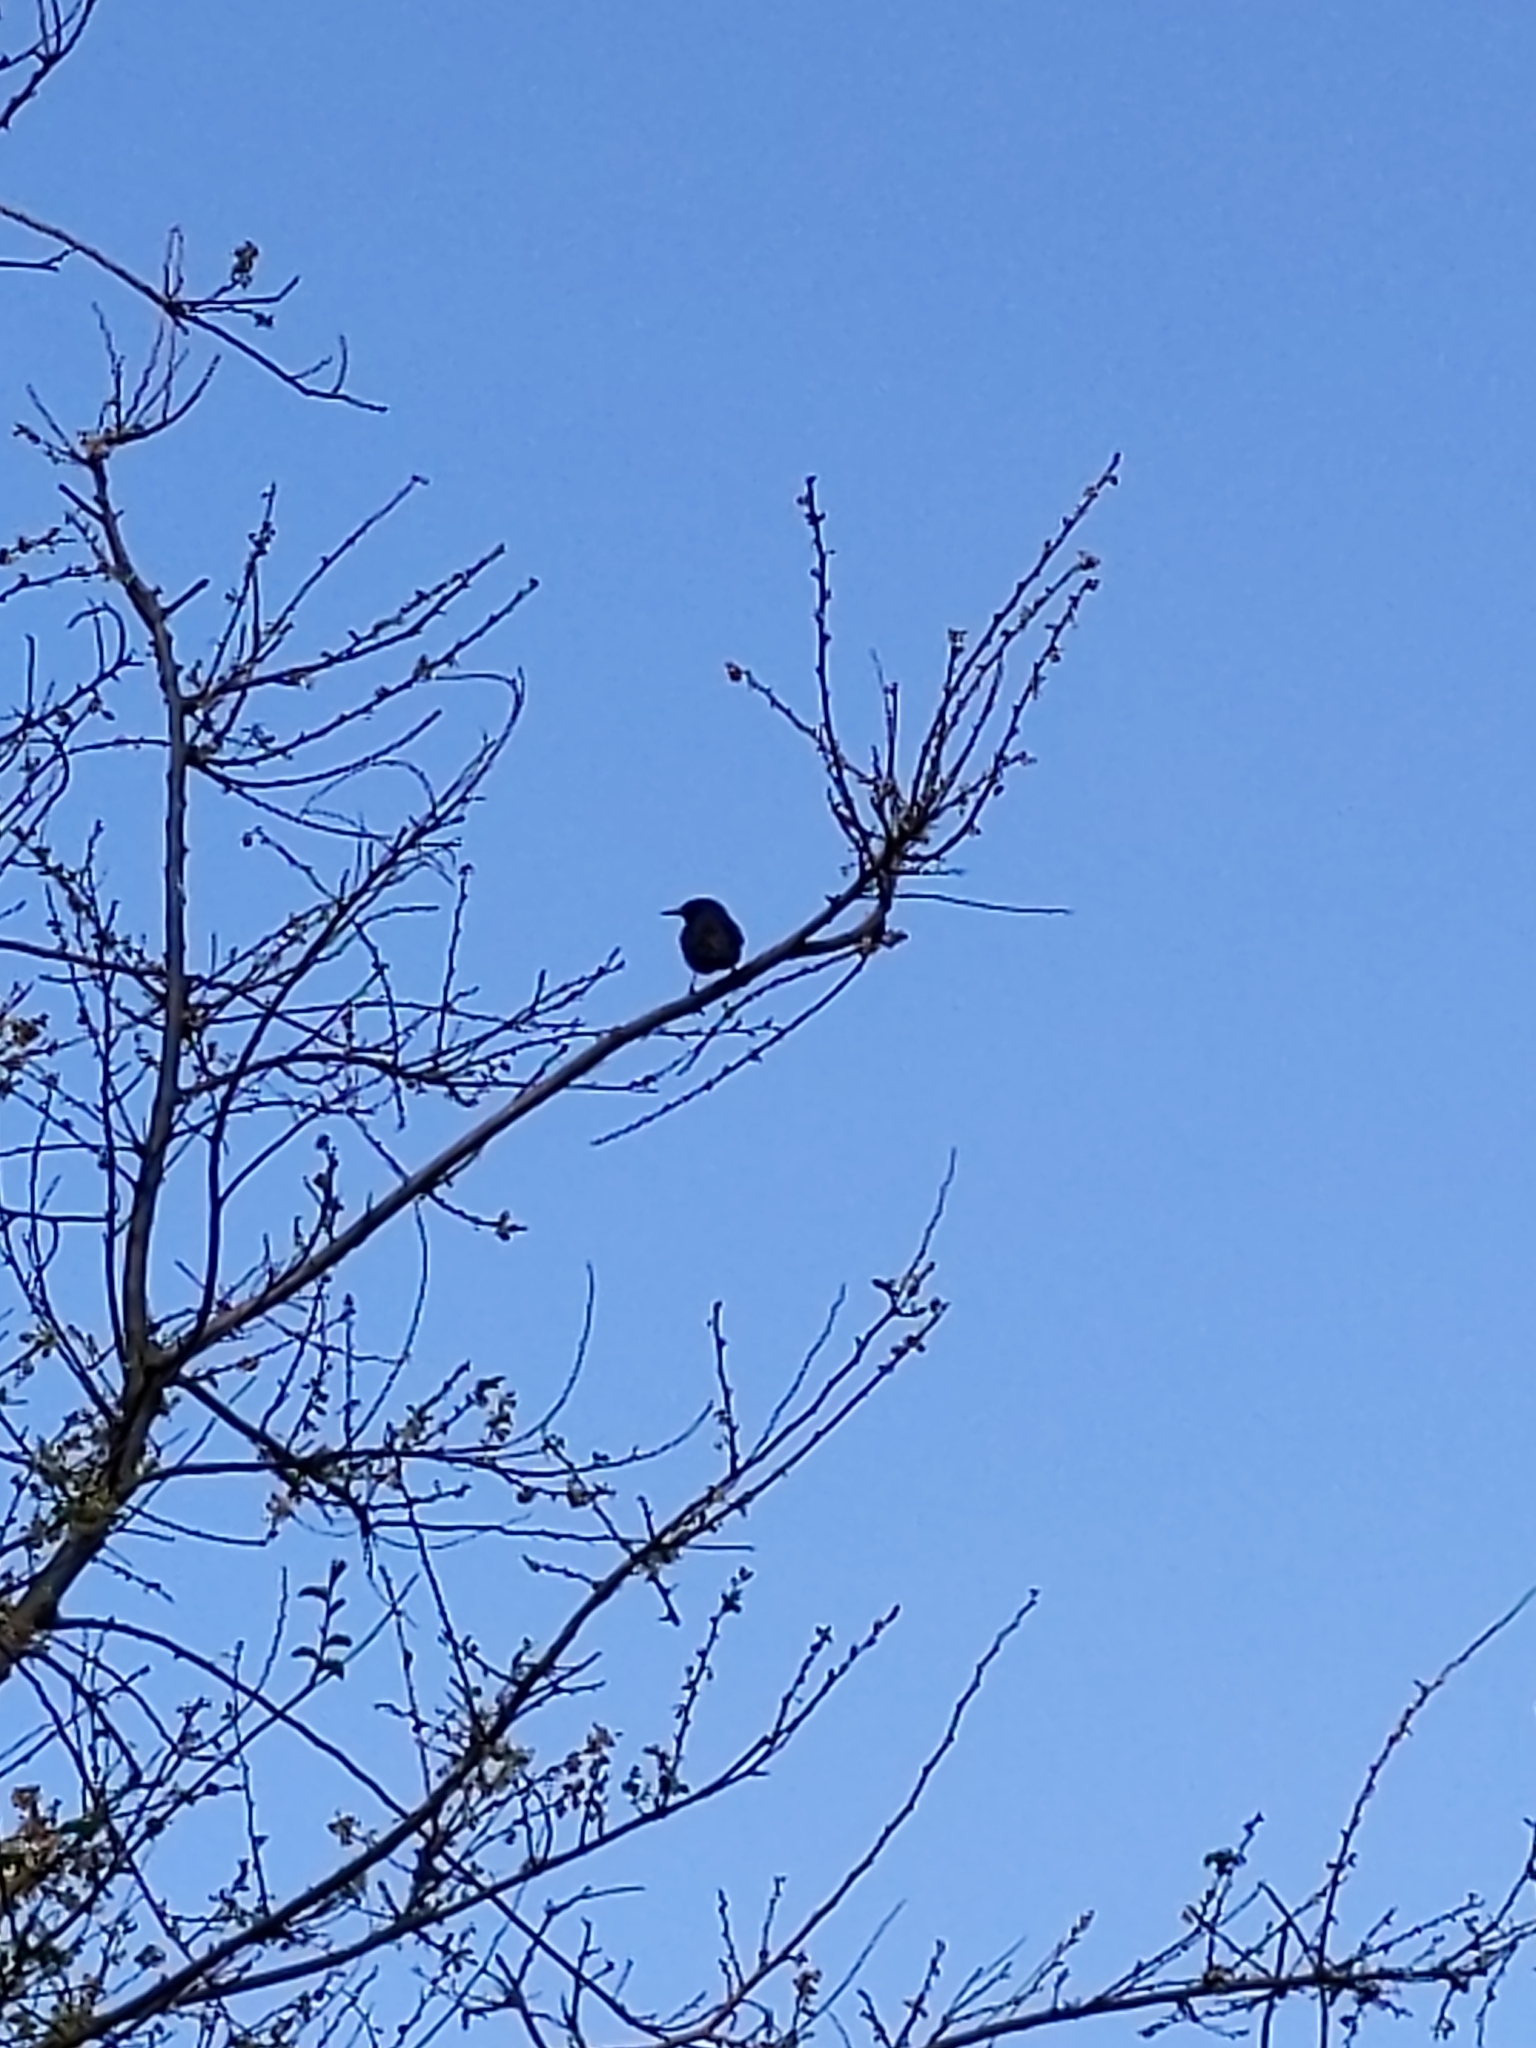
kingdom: Animalia
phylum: Chordata
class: Aves
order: Passeriformes
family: Sturnidae
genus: Sturnus
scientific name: Sturnus vulgaris
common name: Common starling
